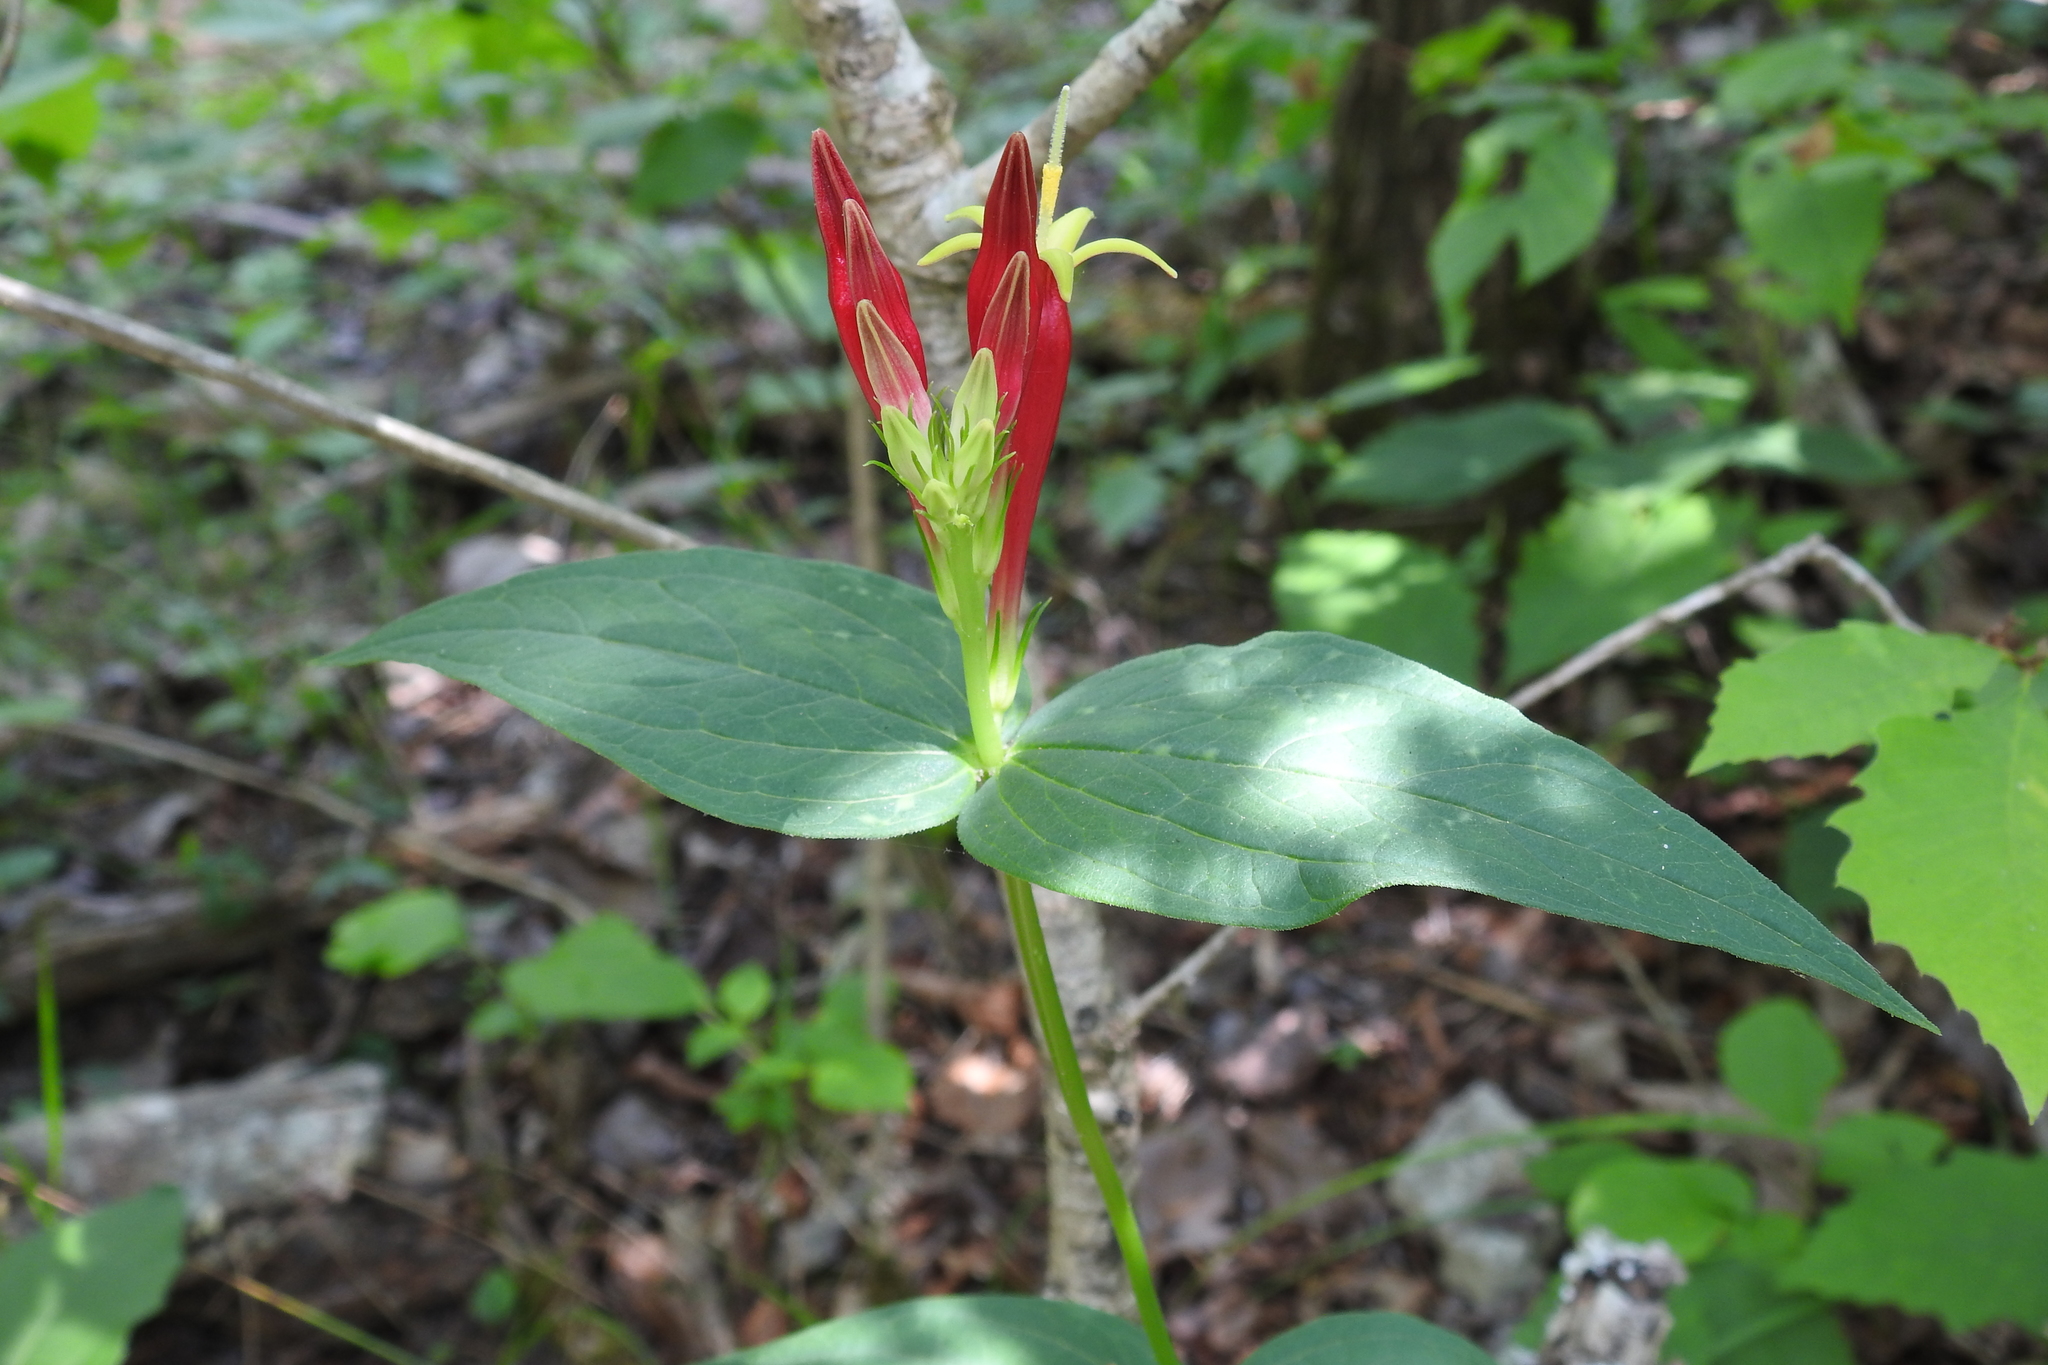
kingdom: Plantae
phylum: Tracheophyta
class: Magnoliopsida
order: Gentianales
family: Loganiaceae
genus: Spigelia
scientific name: Spigelia marilandica
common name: Indian-pink
